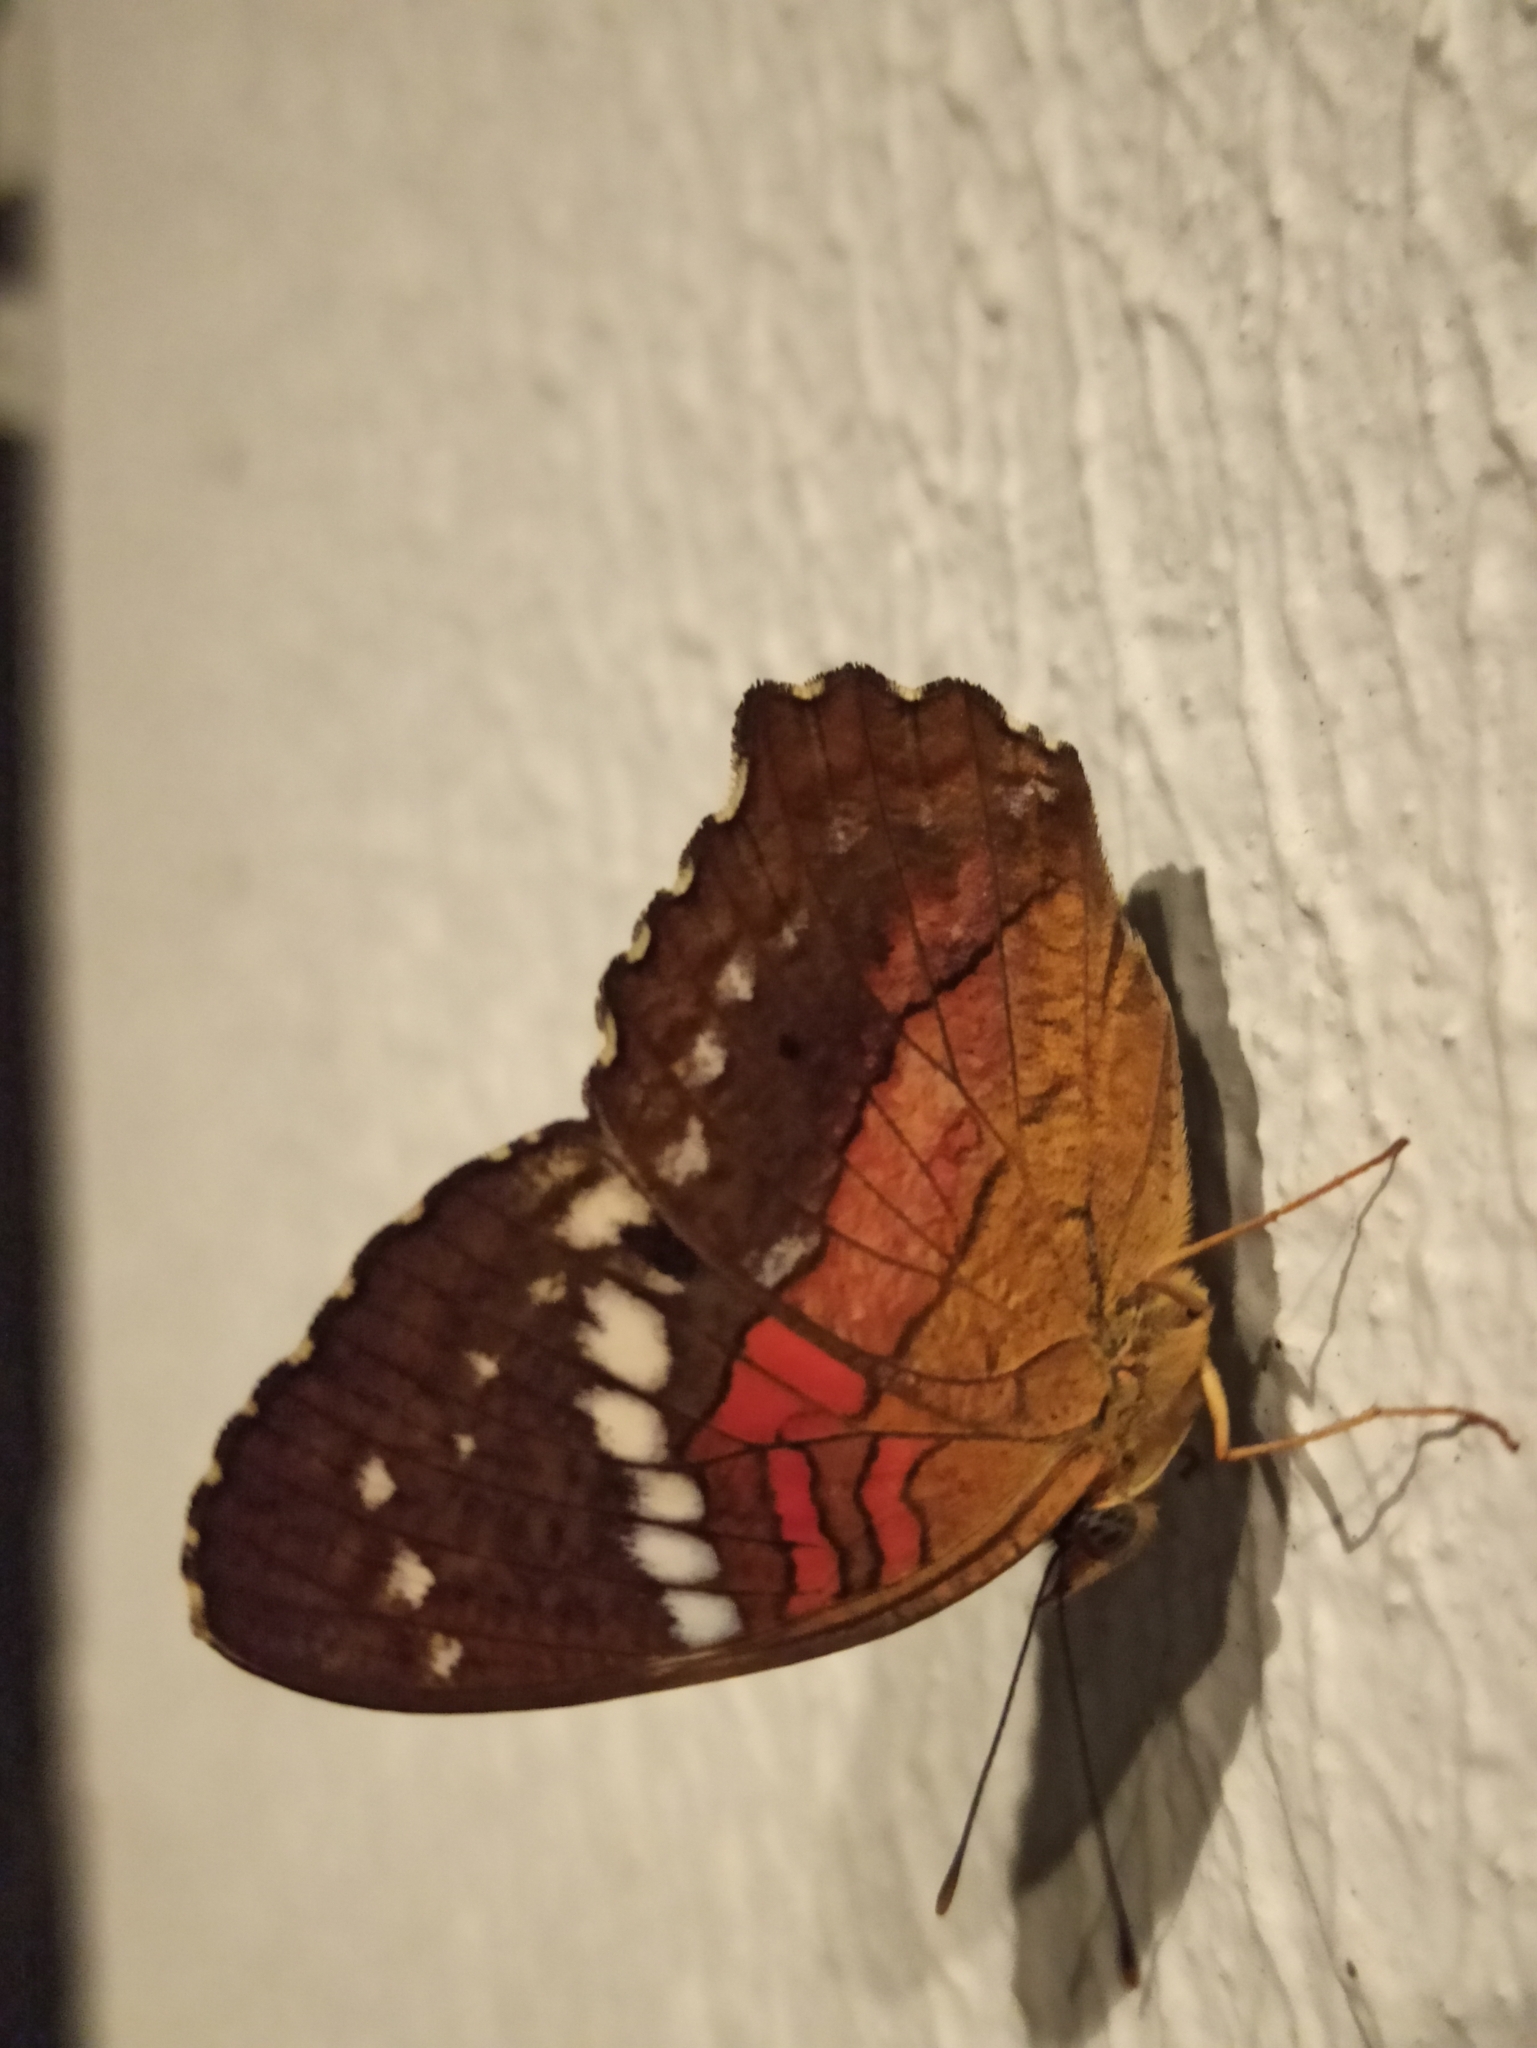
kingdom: Animalia
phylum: Arthropoda
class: Insecta
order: Lepidoptera
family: Nymphalidae
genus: Anartia
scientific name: Anartia amathea
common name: Red peacock
